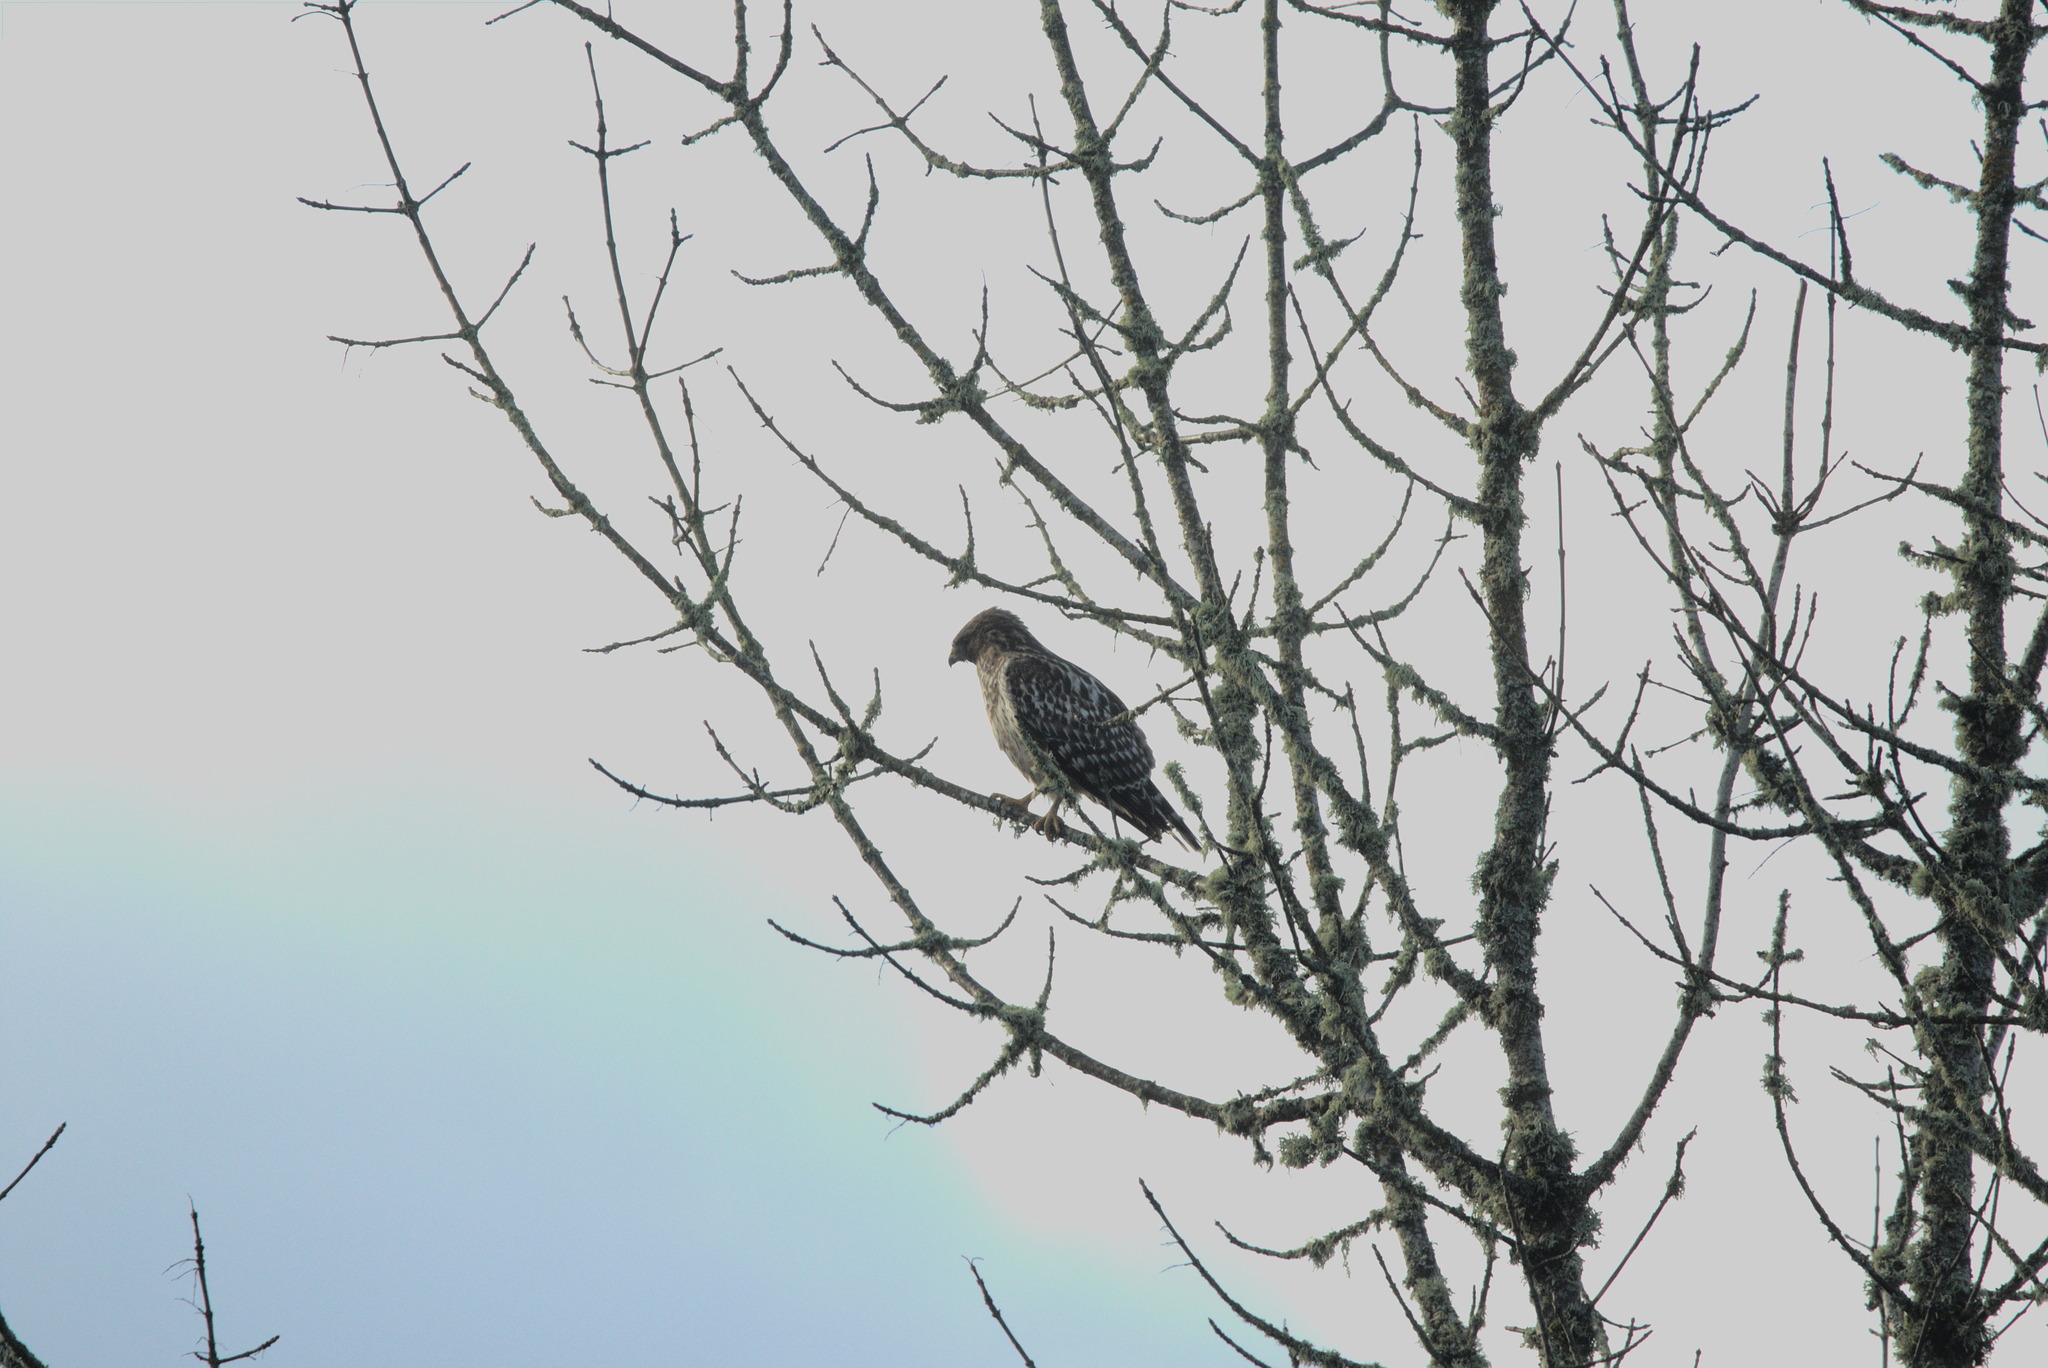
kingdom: Animalia
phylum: Chordata
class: Aves
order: Accipitriformes
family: Accipitridae
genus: Buteo
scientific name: Buteo lineatus
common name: Red-shouldered hawk
